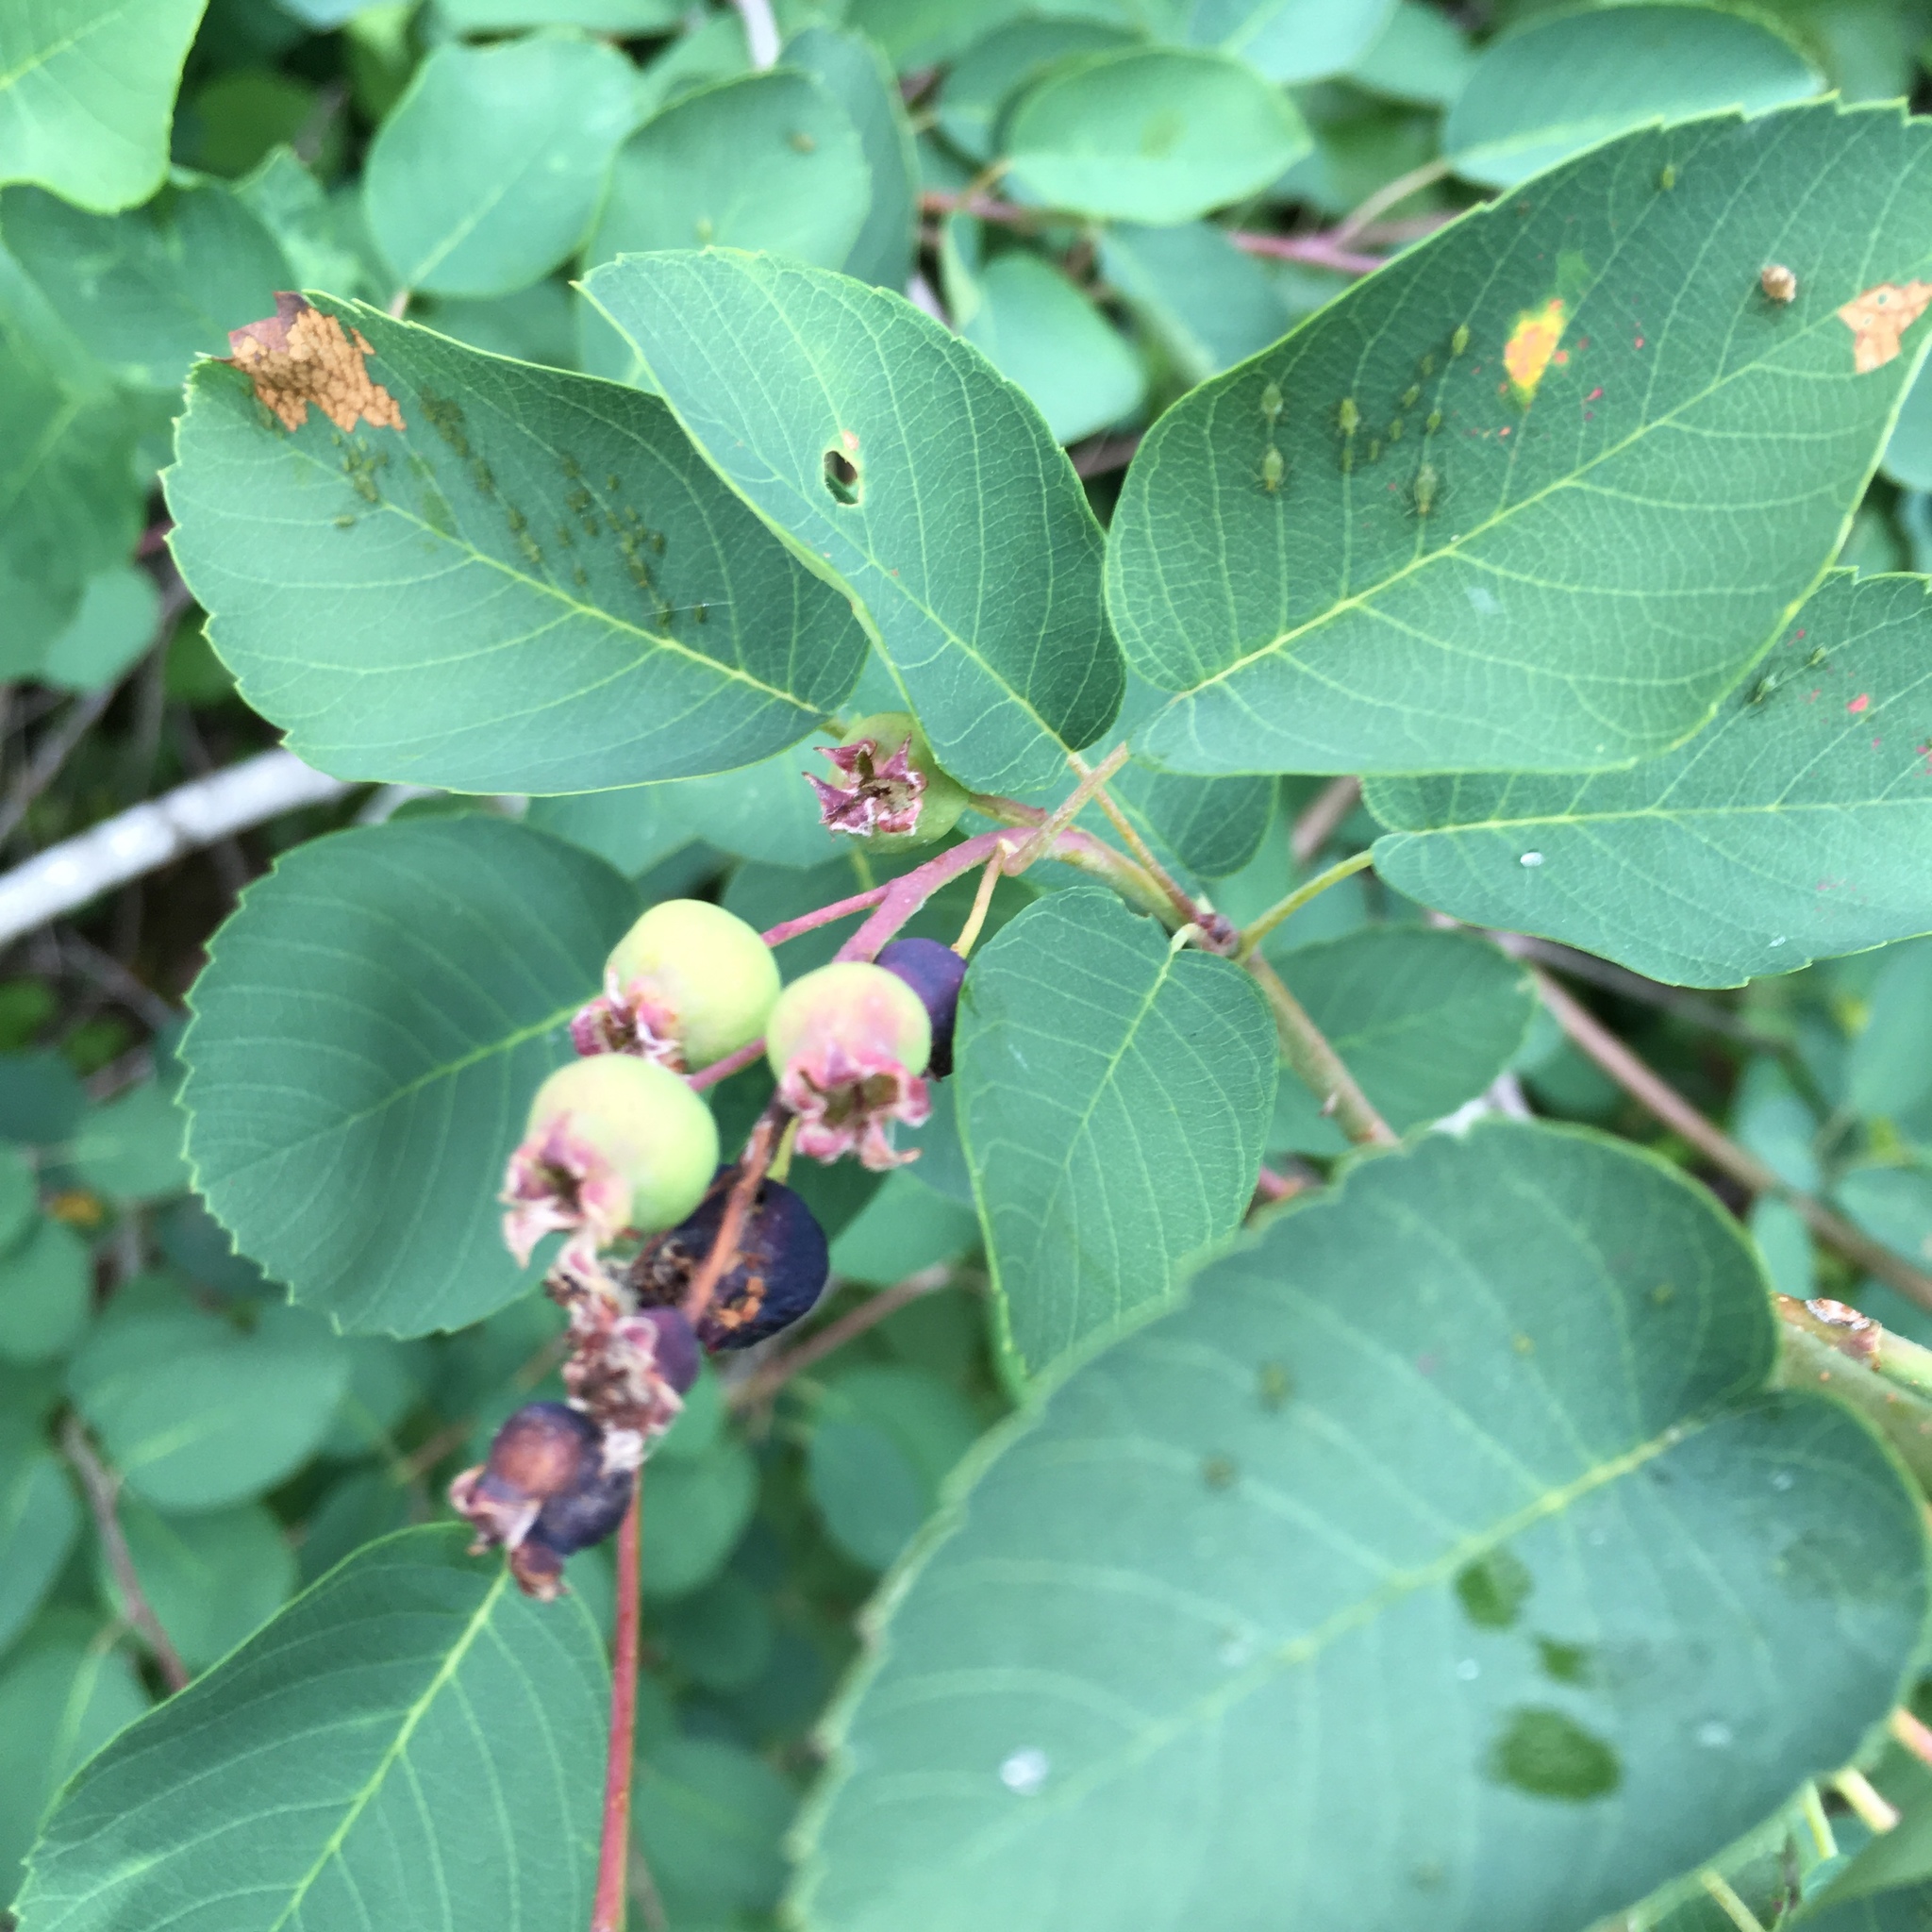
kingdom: Plantae
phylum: Tracheophyta
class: Magnoliopsida
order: Rosales
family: Rosaceae
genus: Amelanchier
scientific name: Amelanchier alnifolia
